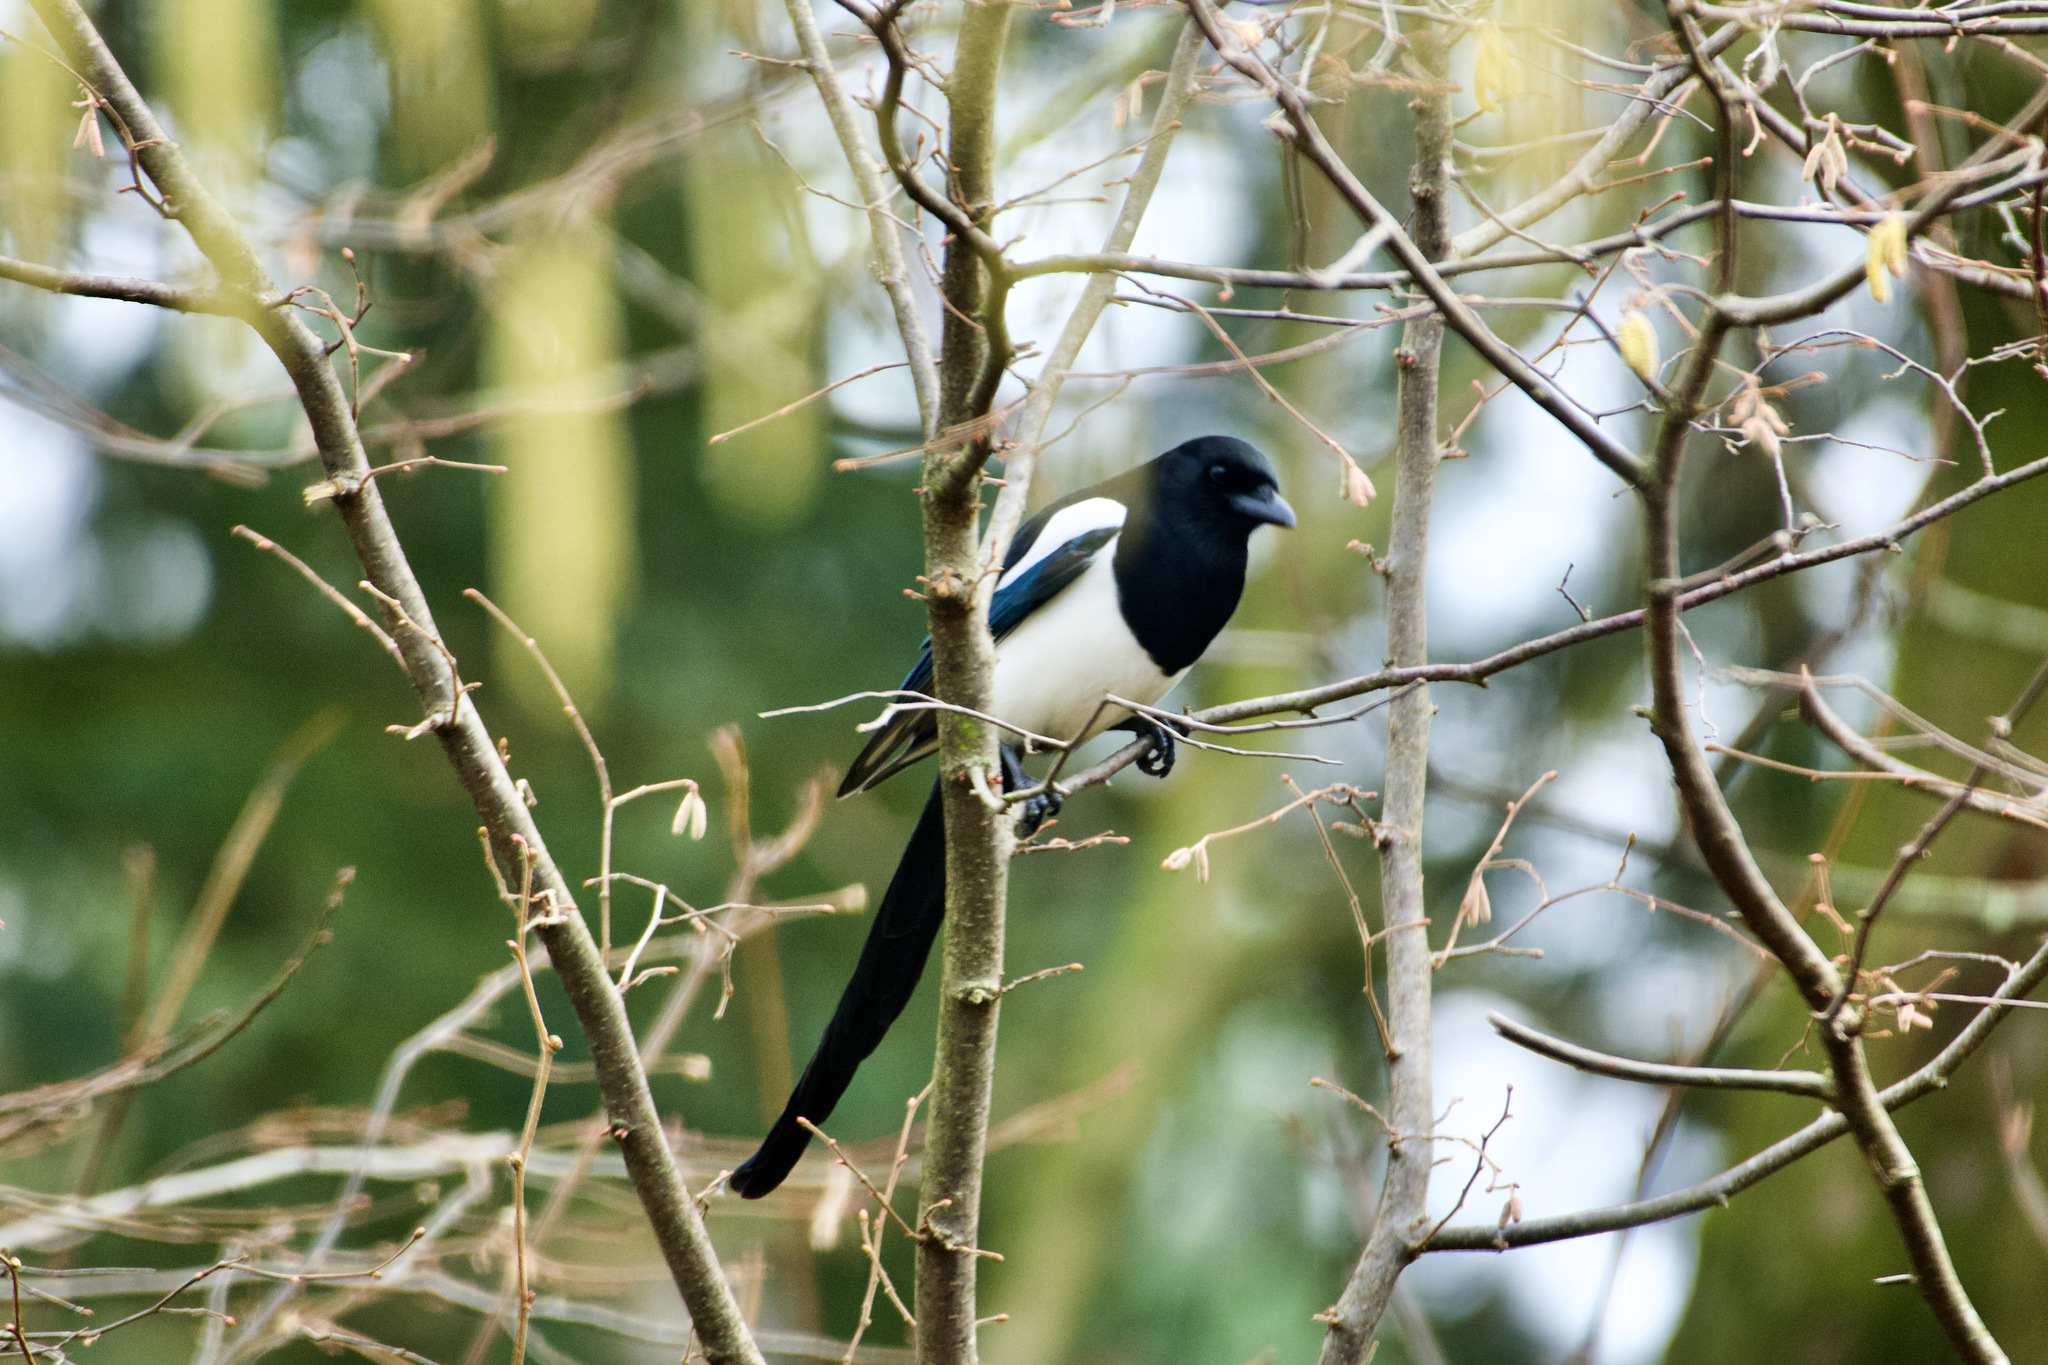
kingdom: Animalia
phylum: Chordata
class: Aves
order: Passeriformes
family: Corvidae
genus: Pica
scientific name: Pica pica
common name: Eurasian magpie
